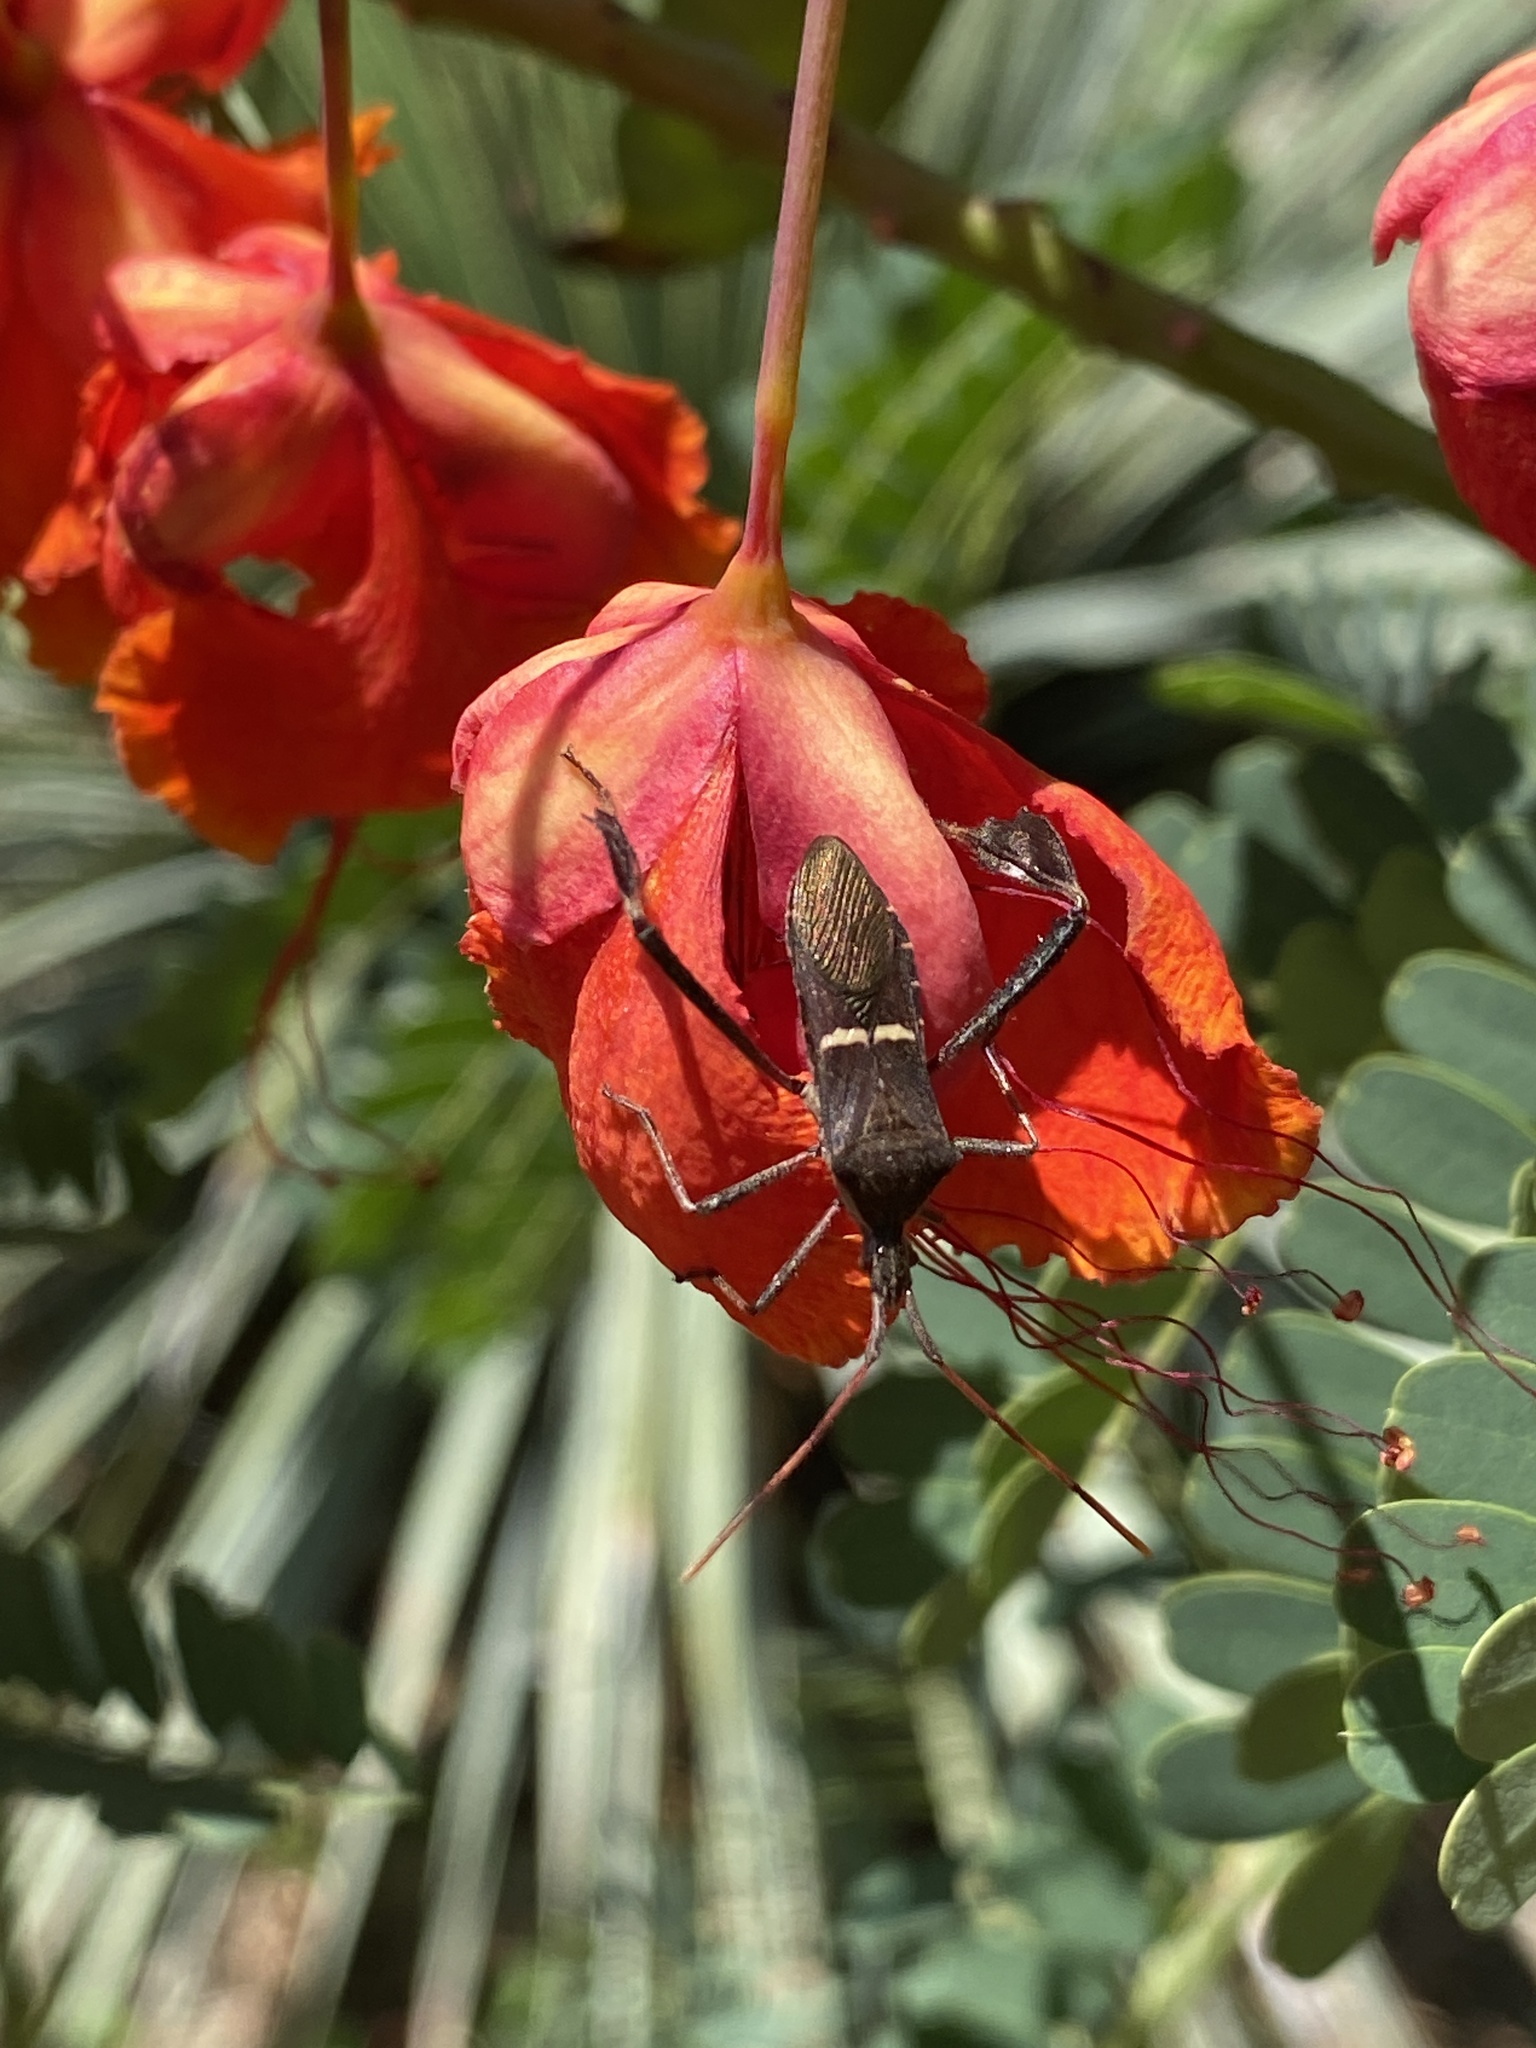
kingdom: Animalia
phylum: Arthropoda
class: Insecta
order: Hemiptera
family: Coreidae
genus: Leptoglossus
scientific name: Leptoglossus phyllopus
